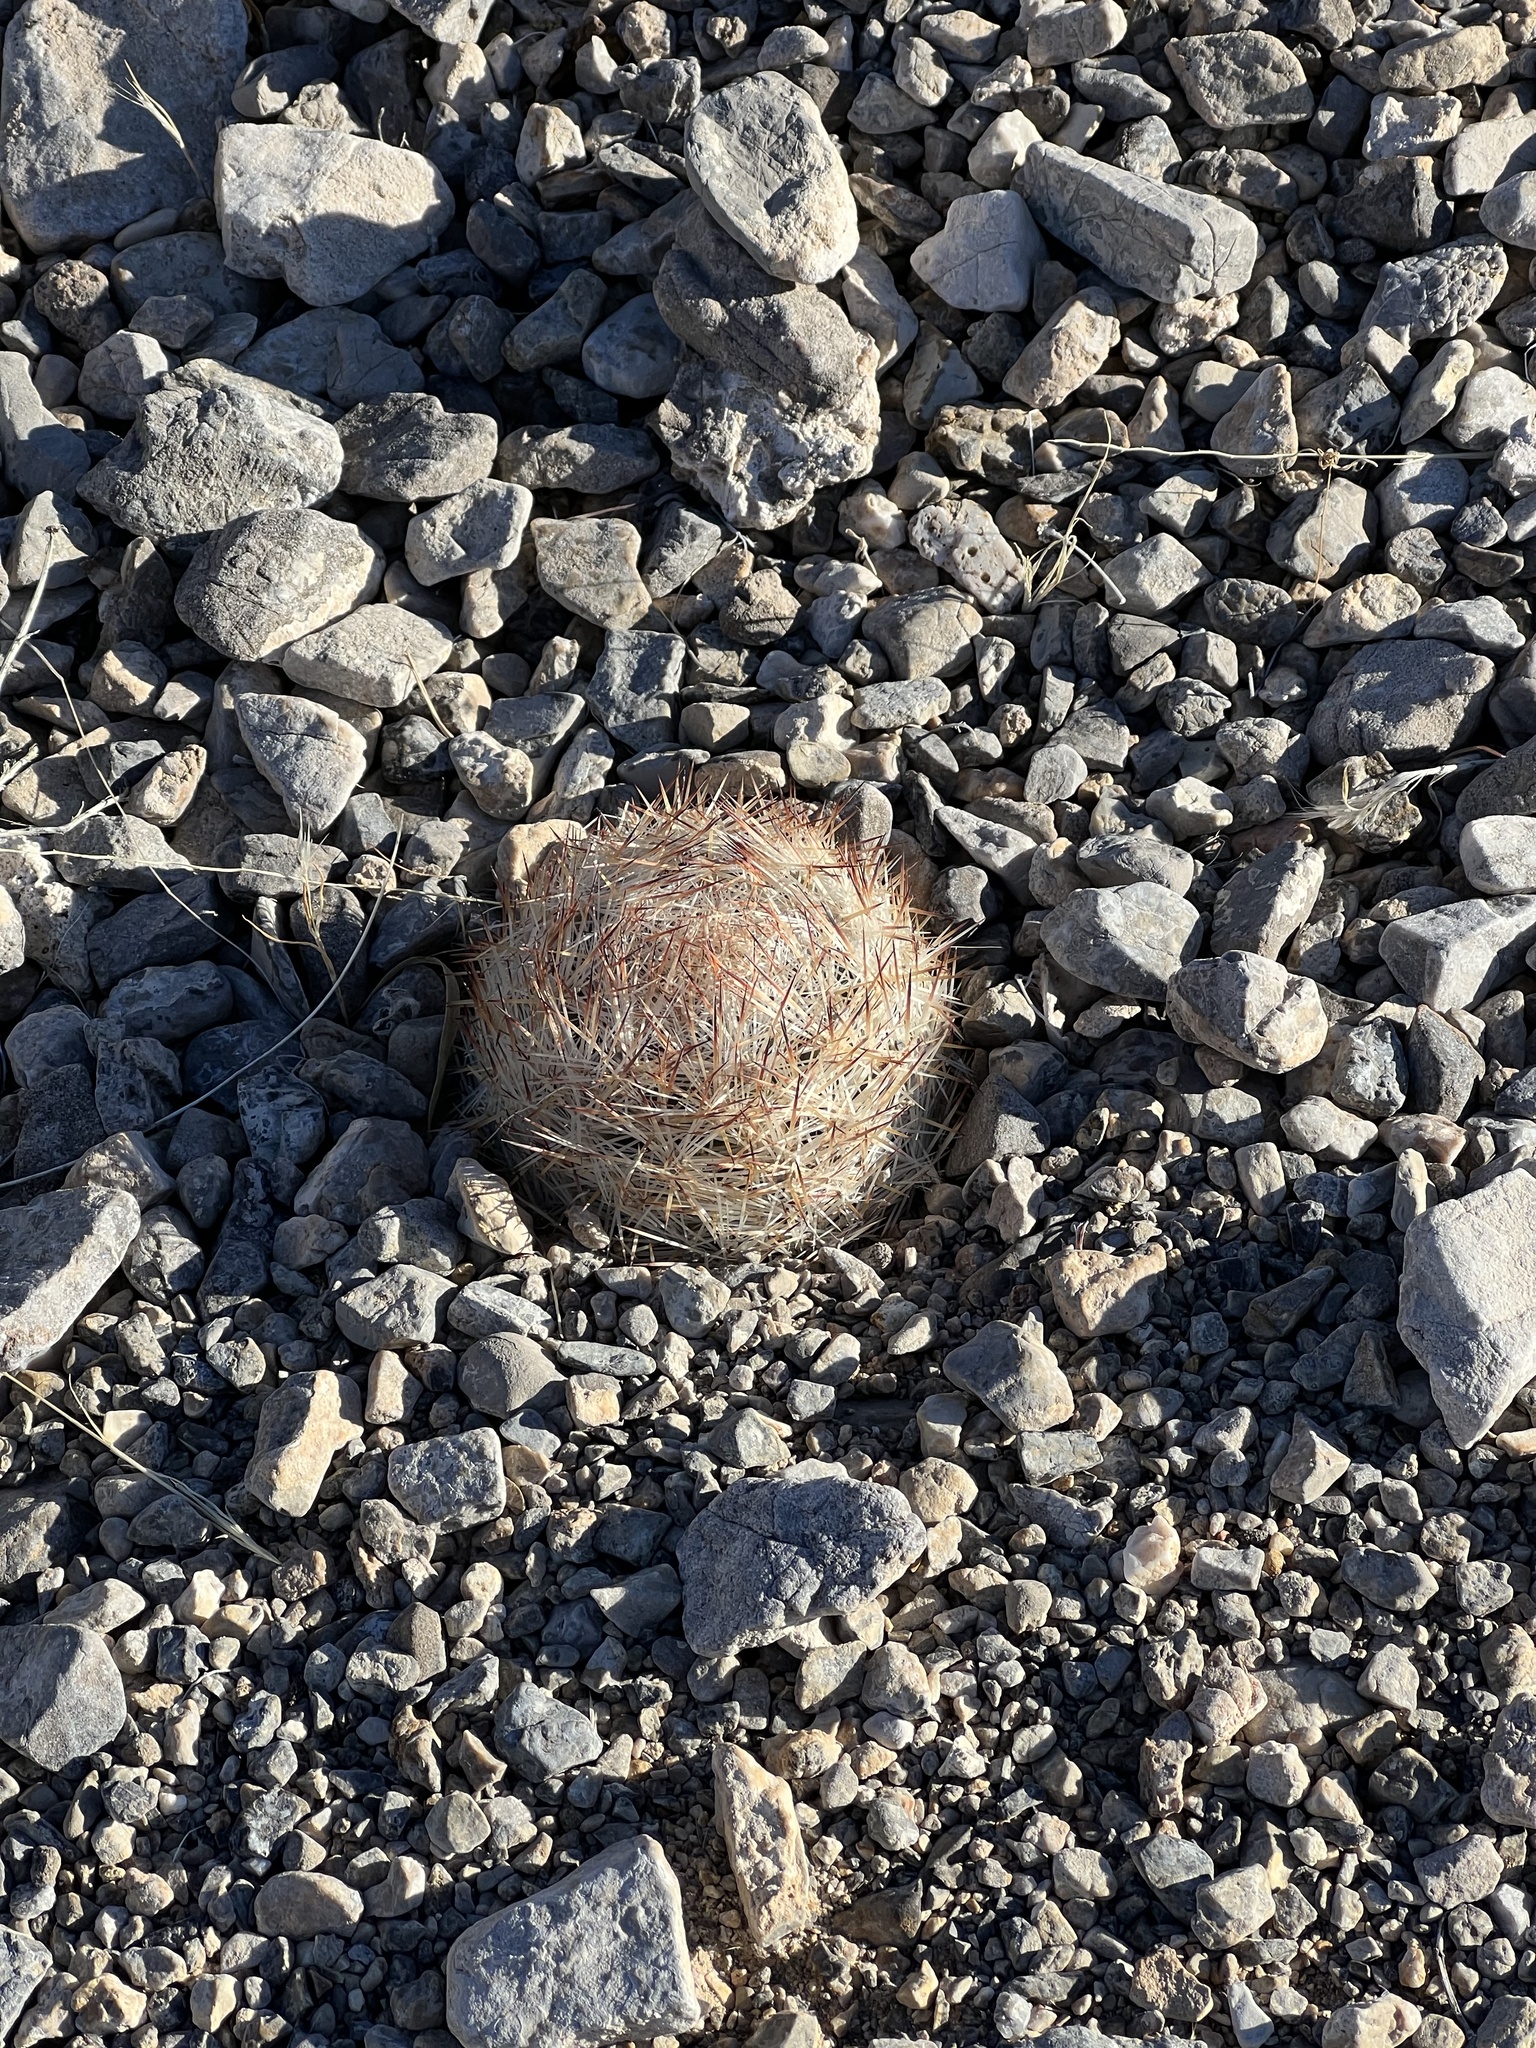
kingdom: Plantae
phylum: Tracheophyta
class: Magnoliopsida
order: Caryophyllales
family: Cactaceae
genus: Pelecyphora
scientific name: Pelecyphora dasyacantha
